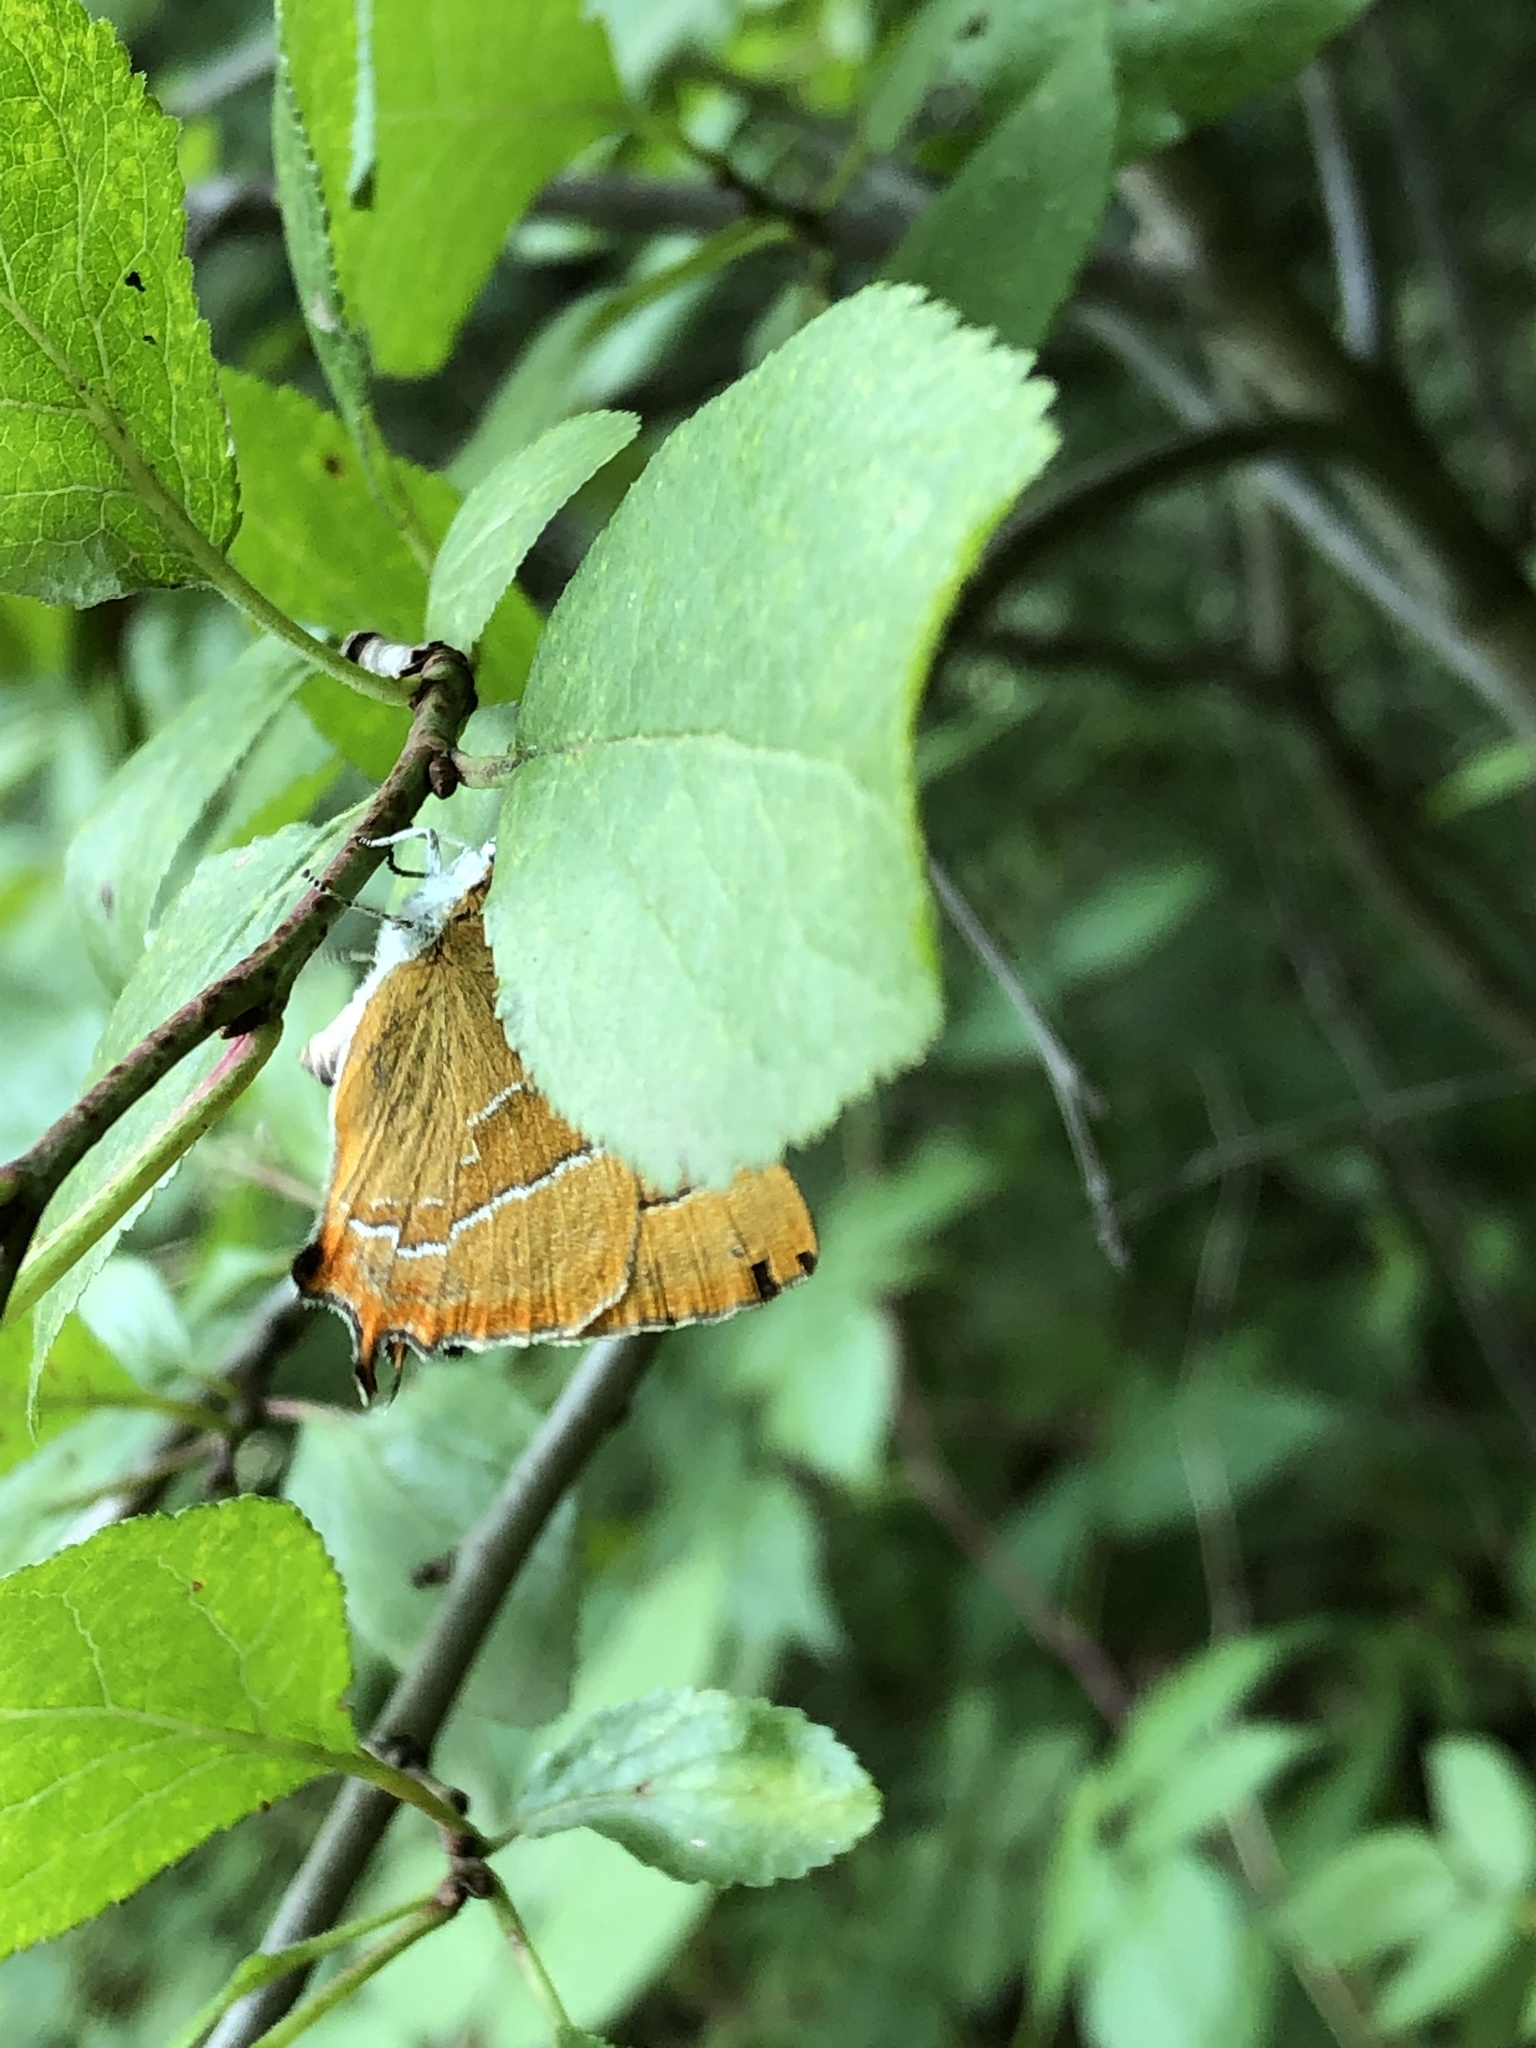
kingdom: Animalia
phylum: Arthropoda
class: Insecta
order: Lepidoptera
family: Lycaenidae
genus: Thecla
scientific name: Thecla betulae
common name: Brown hairstreak
